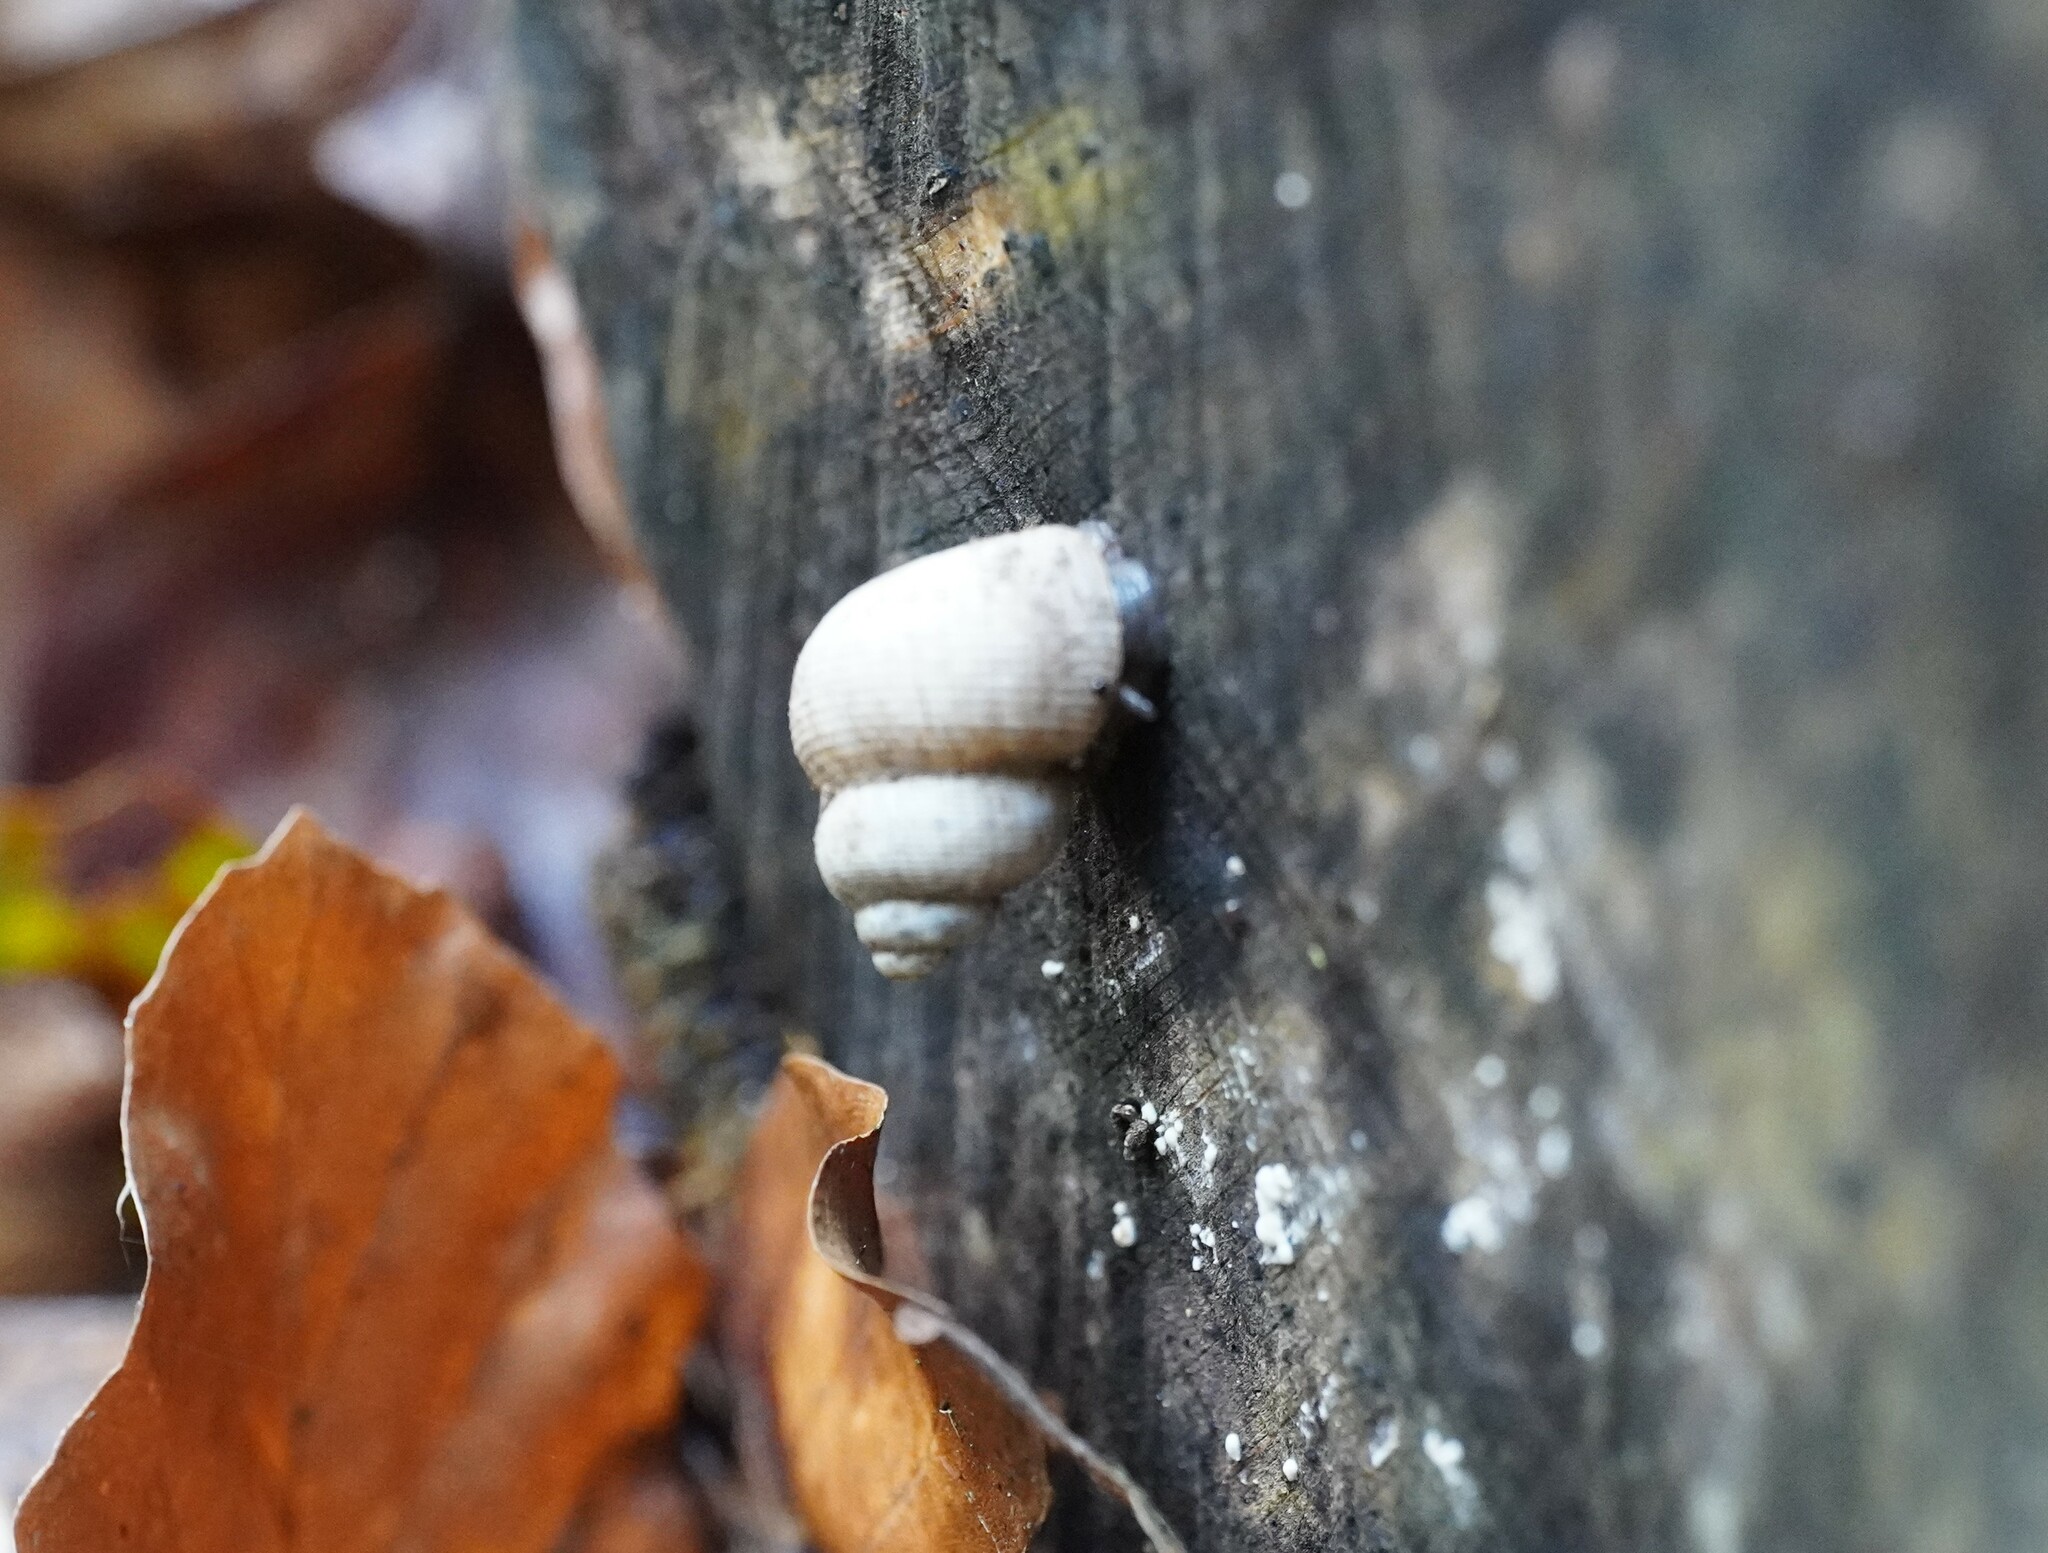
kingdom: Animalia
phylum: Mollusca
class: Gastropoda
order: Littorinimorpha
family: Pomatiidae
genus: Pomatias
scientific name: Pomatias elegans
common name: Red-mouthed snail
